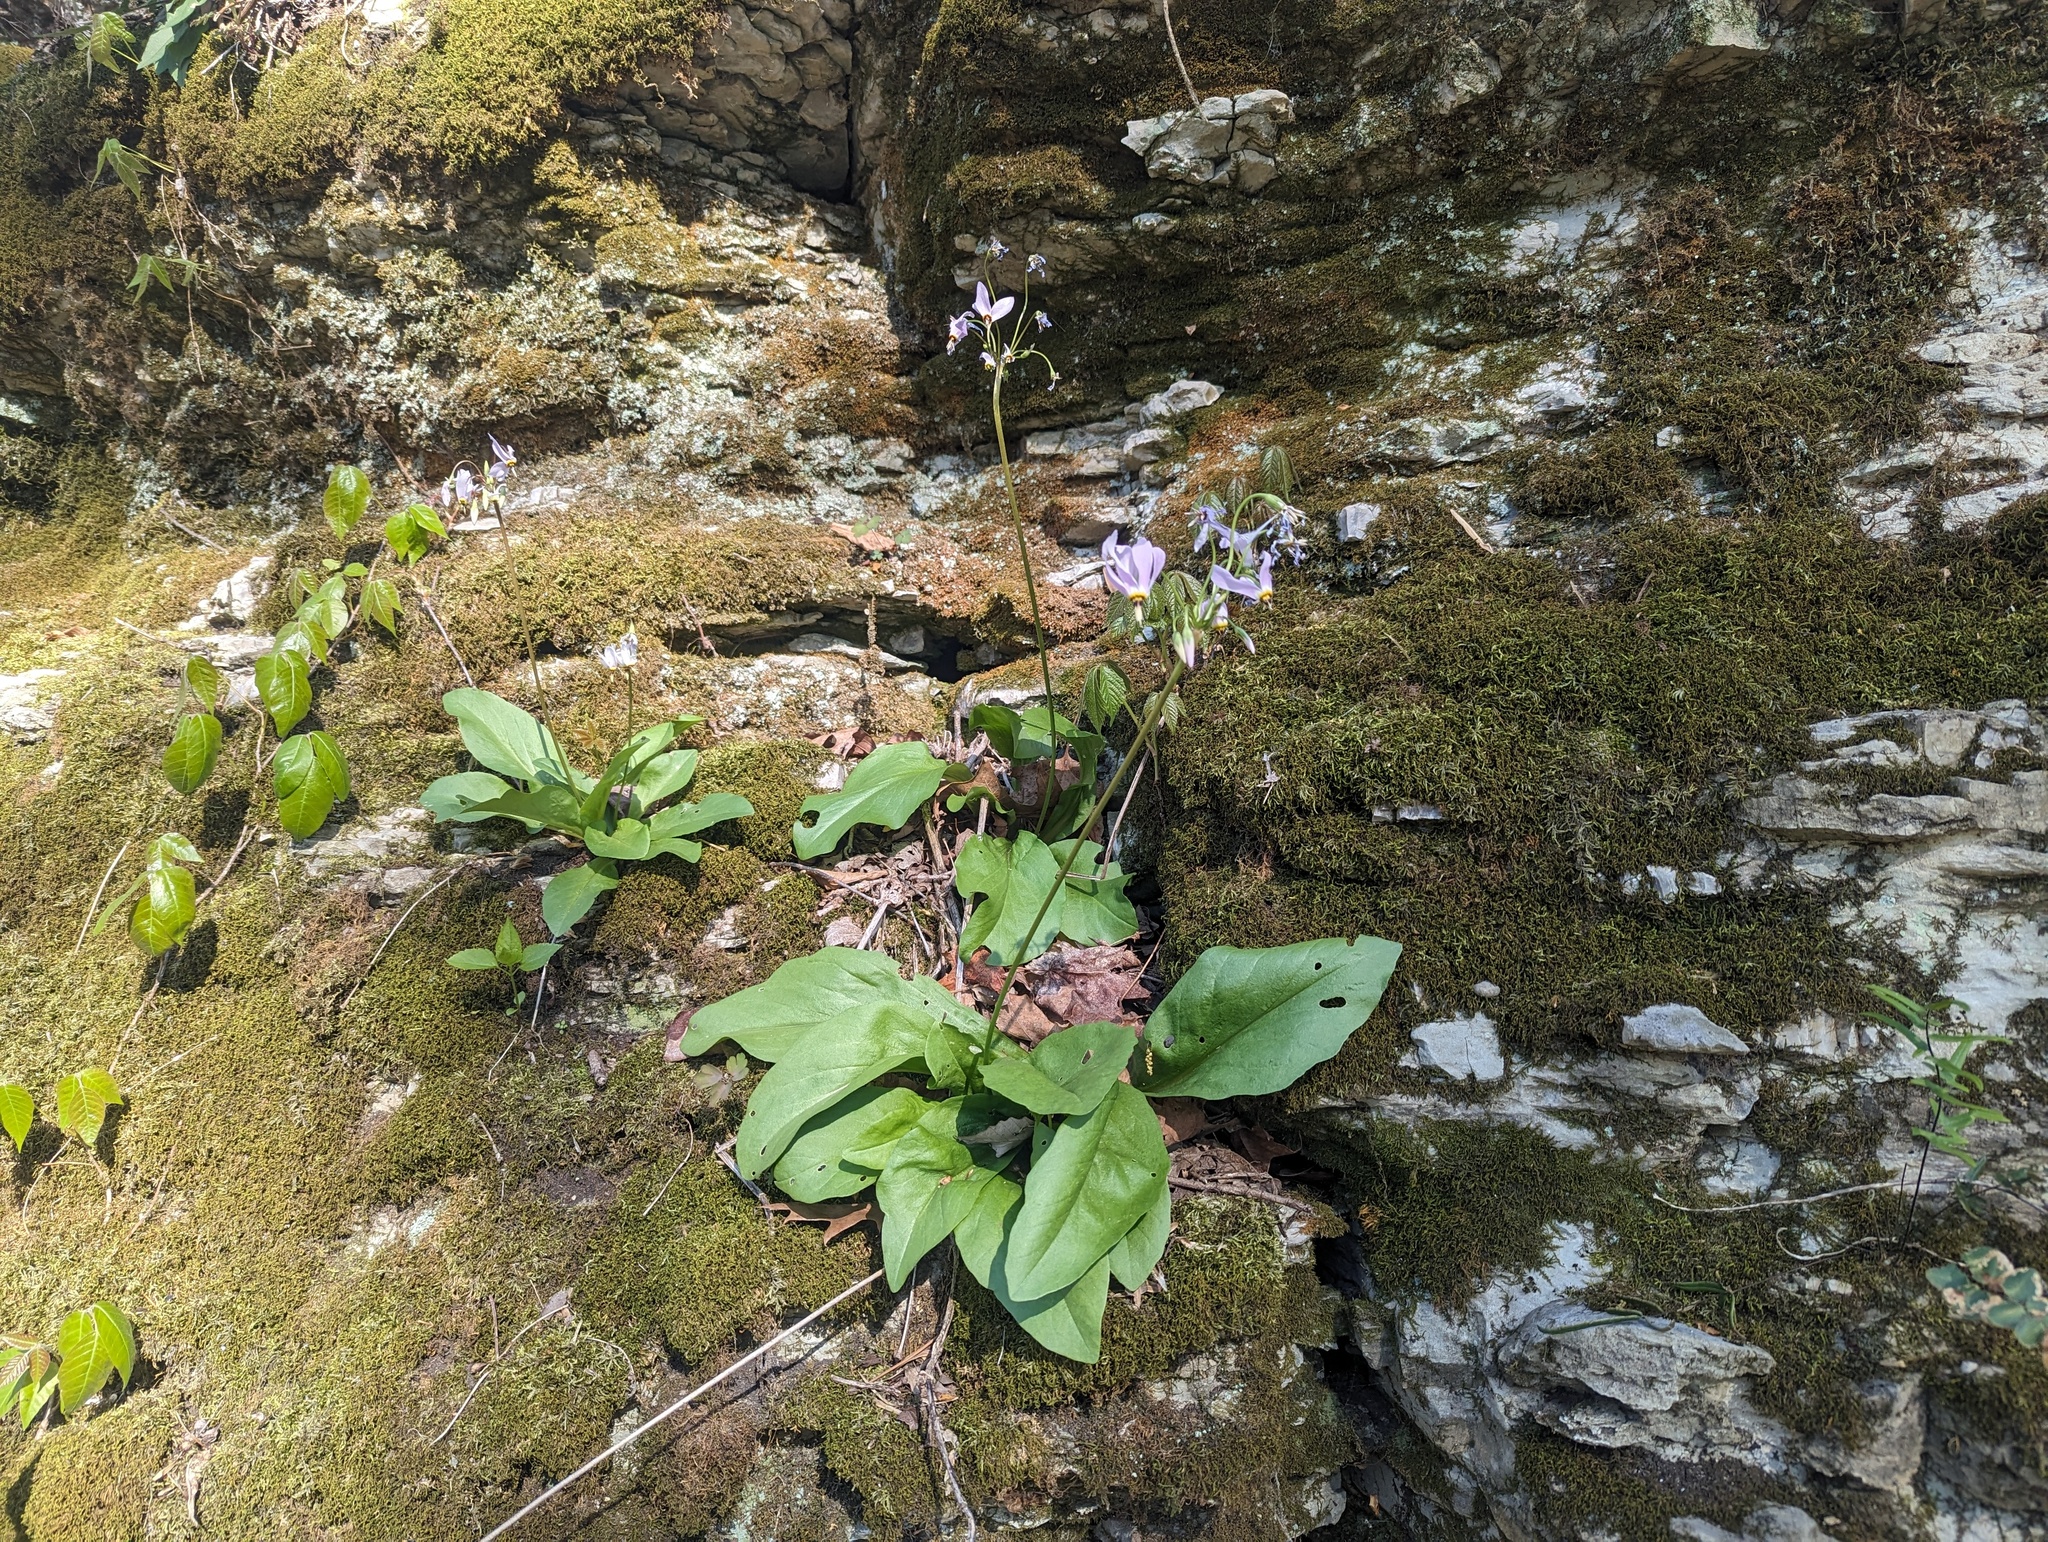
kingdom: Plantae
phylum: Tracheophyta
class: Magnoliopsida
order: Ericales
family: Primulaceae
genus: Dodecatheon
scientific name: Dodecatheon meadia
